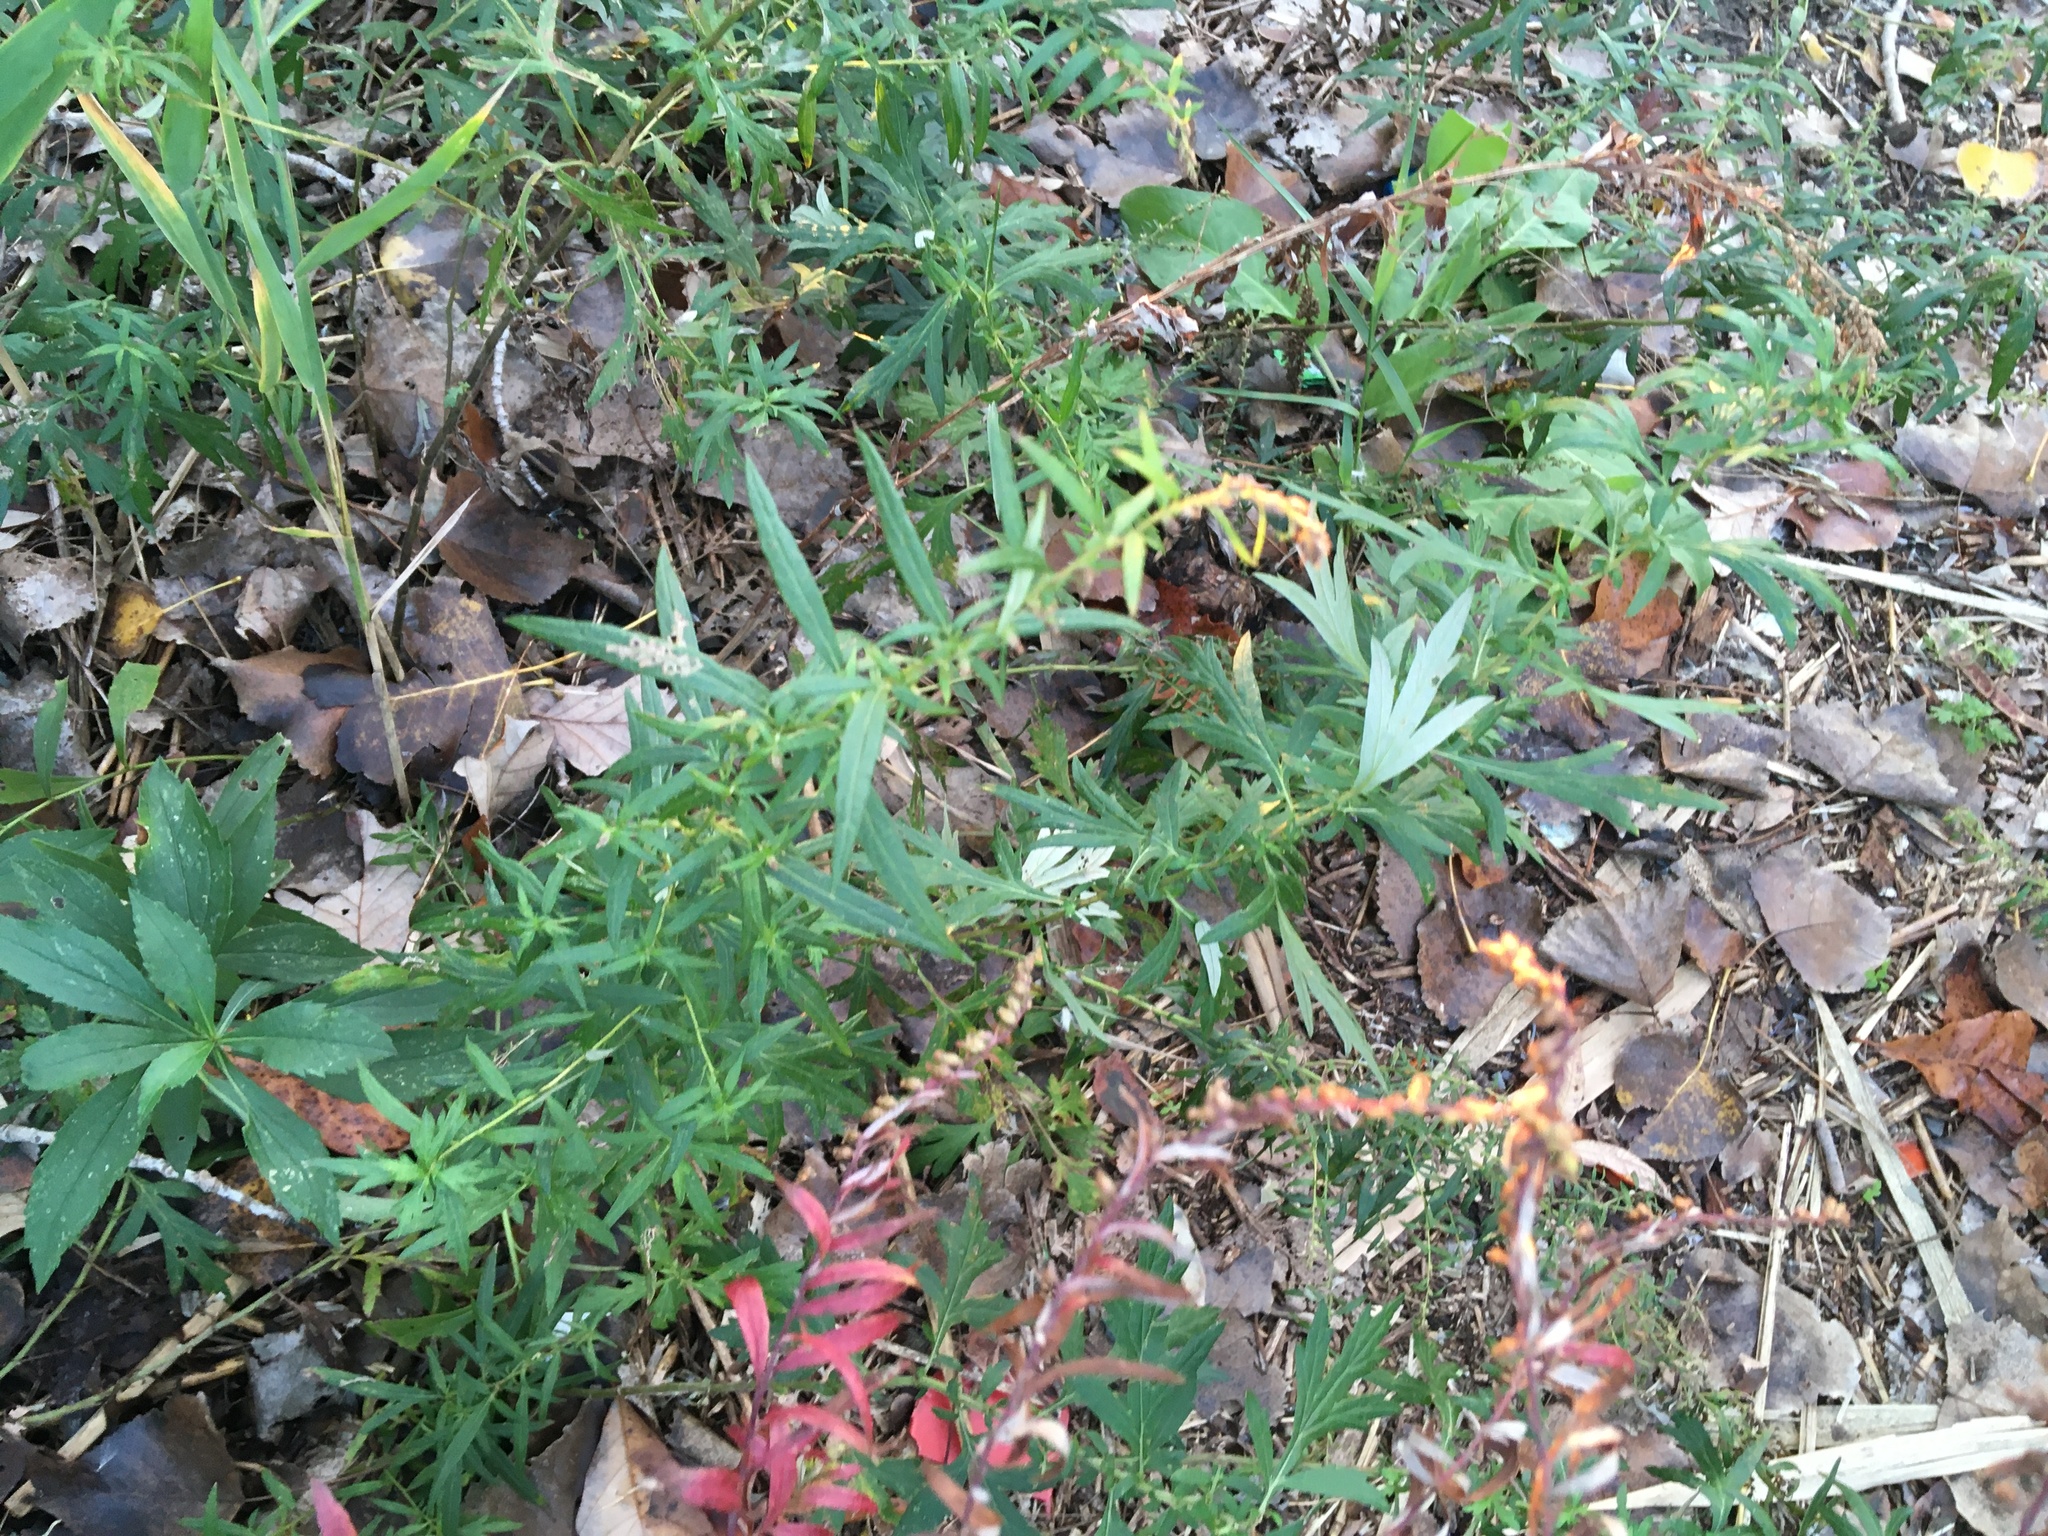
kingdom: Plantae
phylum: Tracheophyta
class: Magnoliopsida
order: Asterales
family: Asteraceae
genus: Artemisia
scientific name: Artemisia vulgaris
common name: Mugwort
